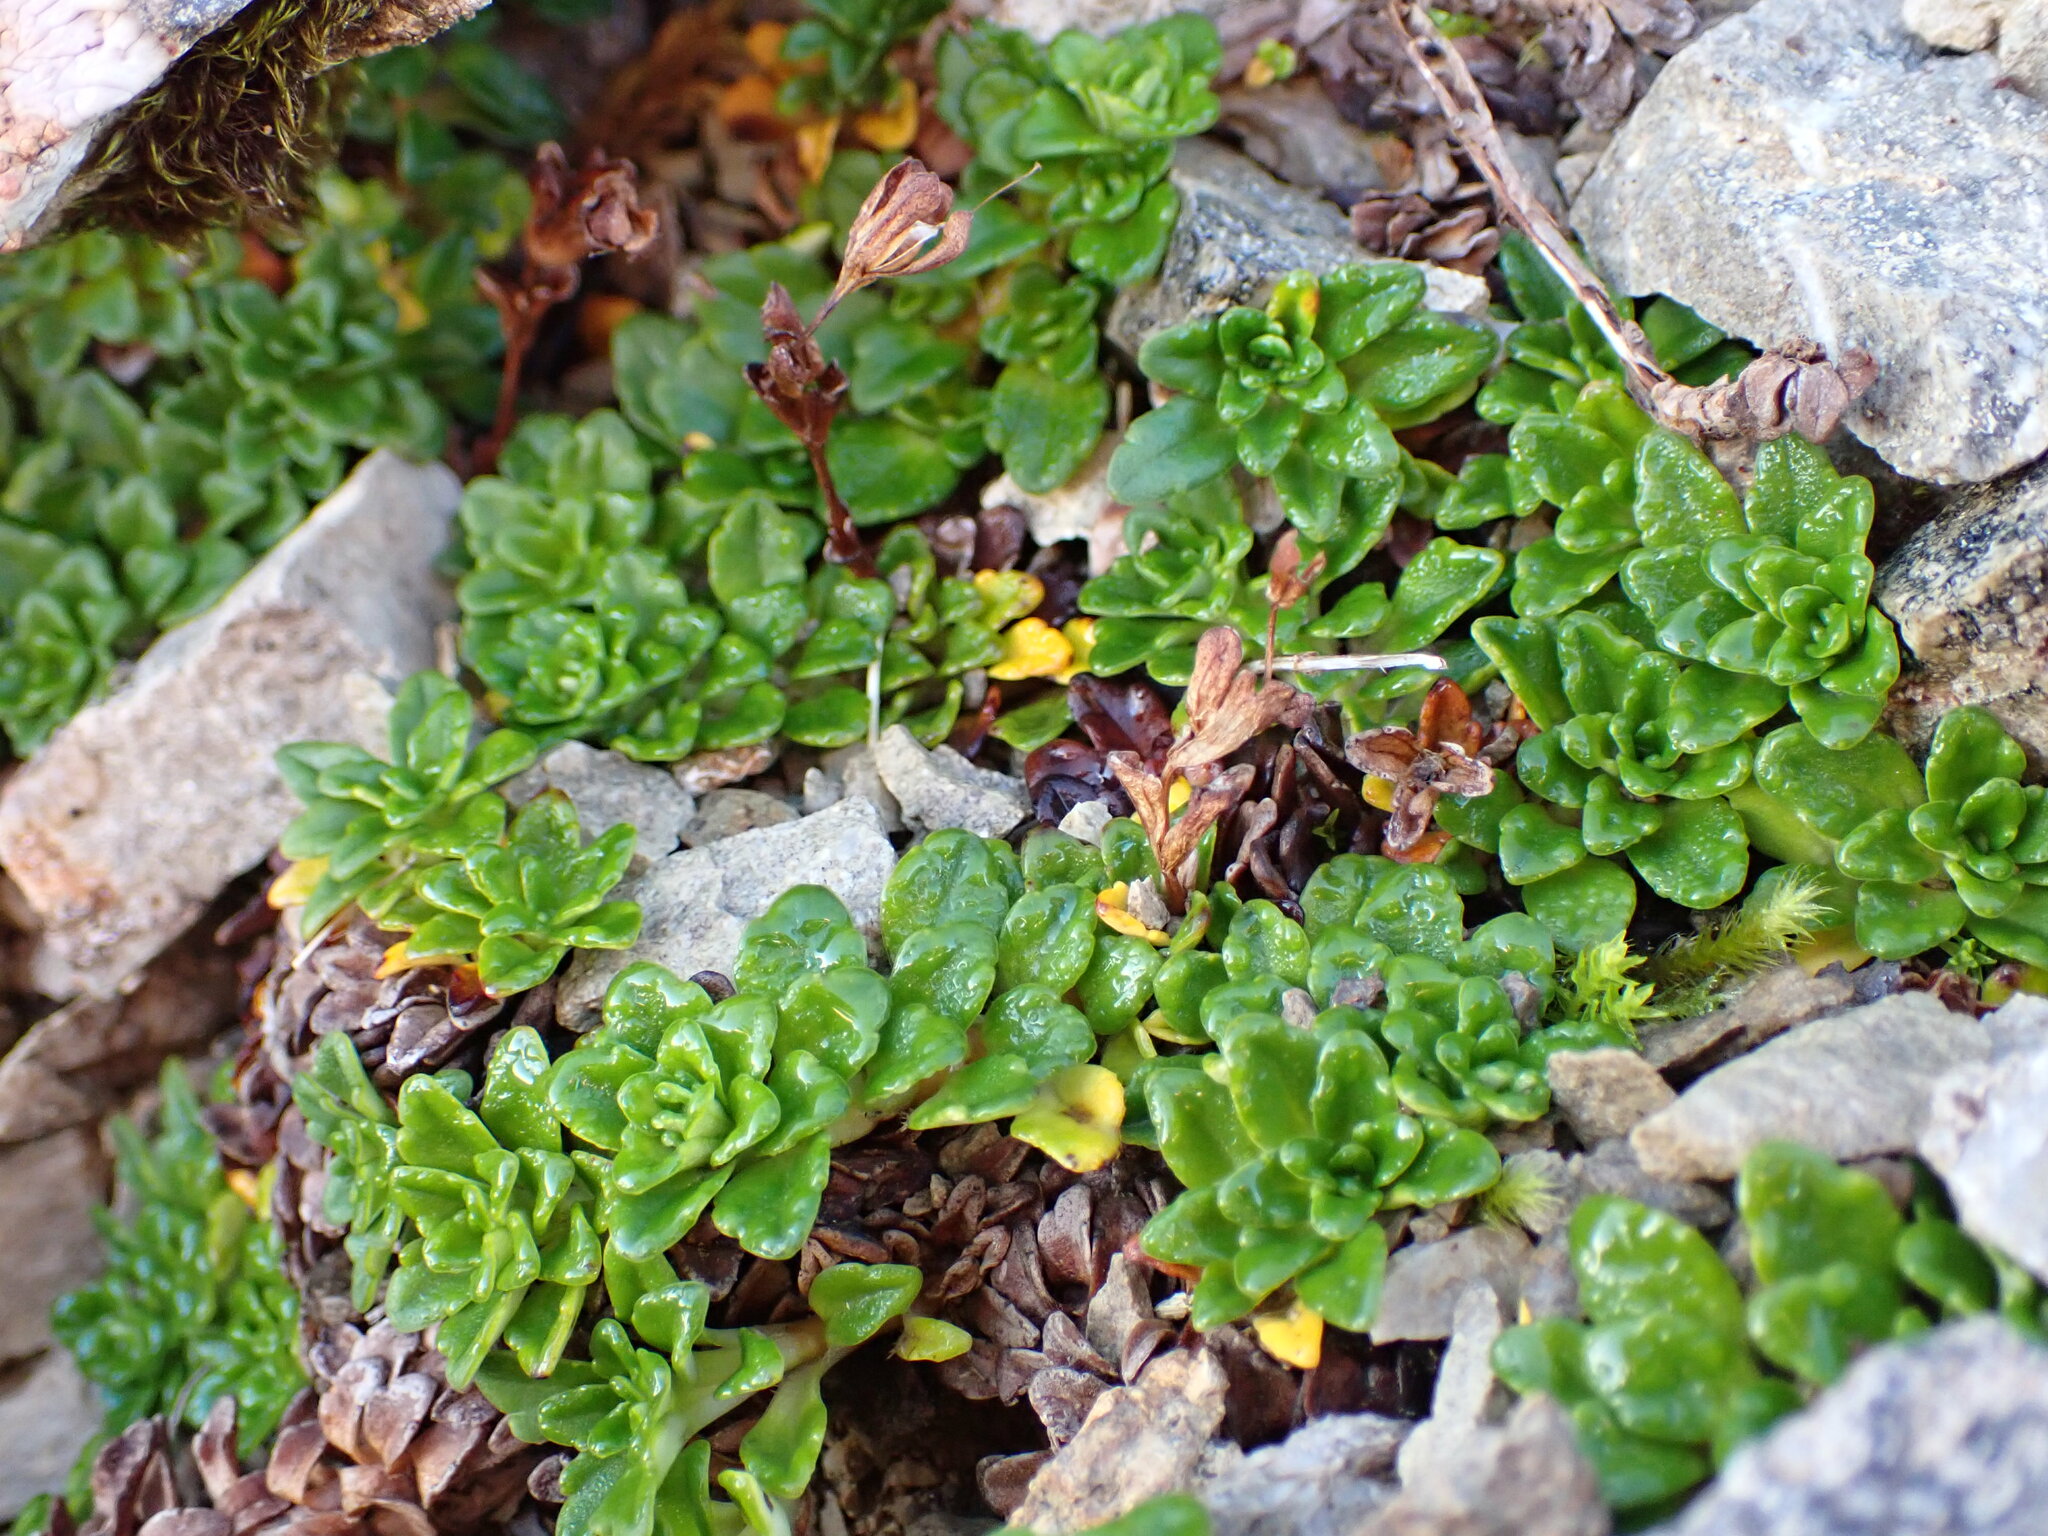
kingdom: Plantae
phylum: Tracheophyta
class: Magnoliopsida
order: Lamiales
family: Plantaginaceae
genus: Ourisia
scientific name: Ourisia caespitosa
